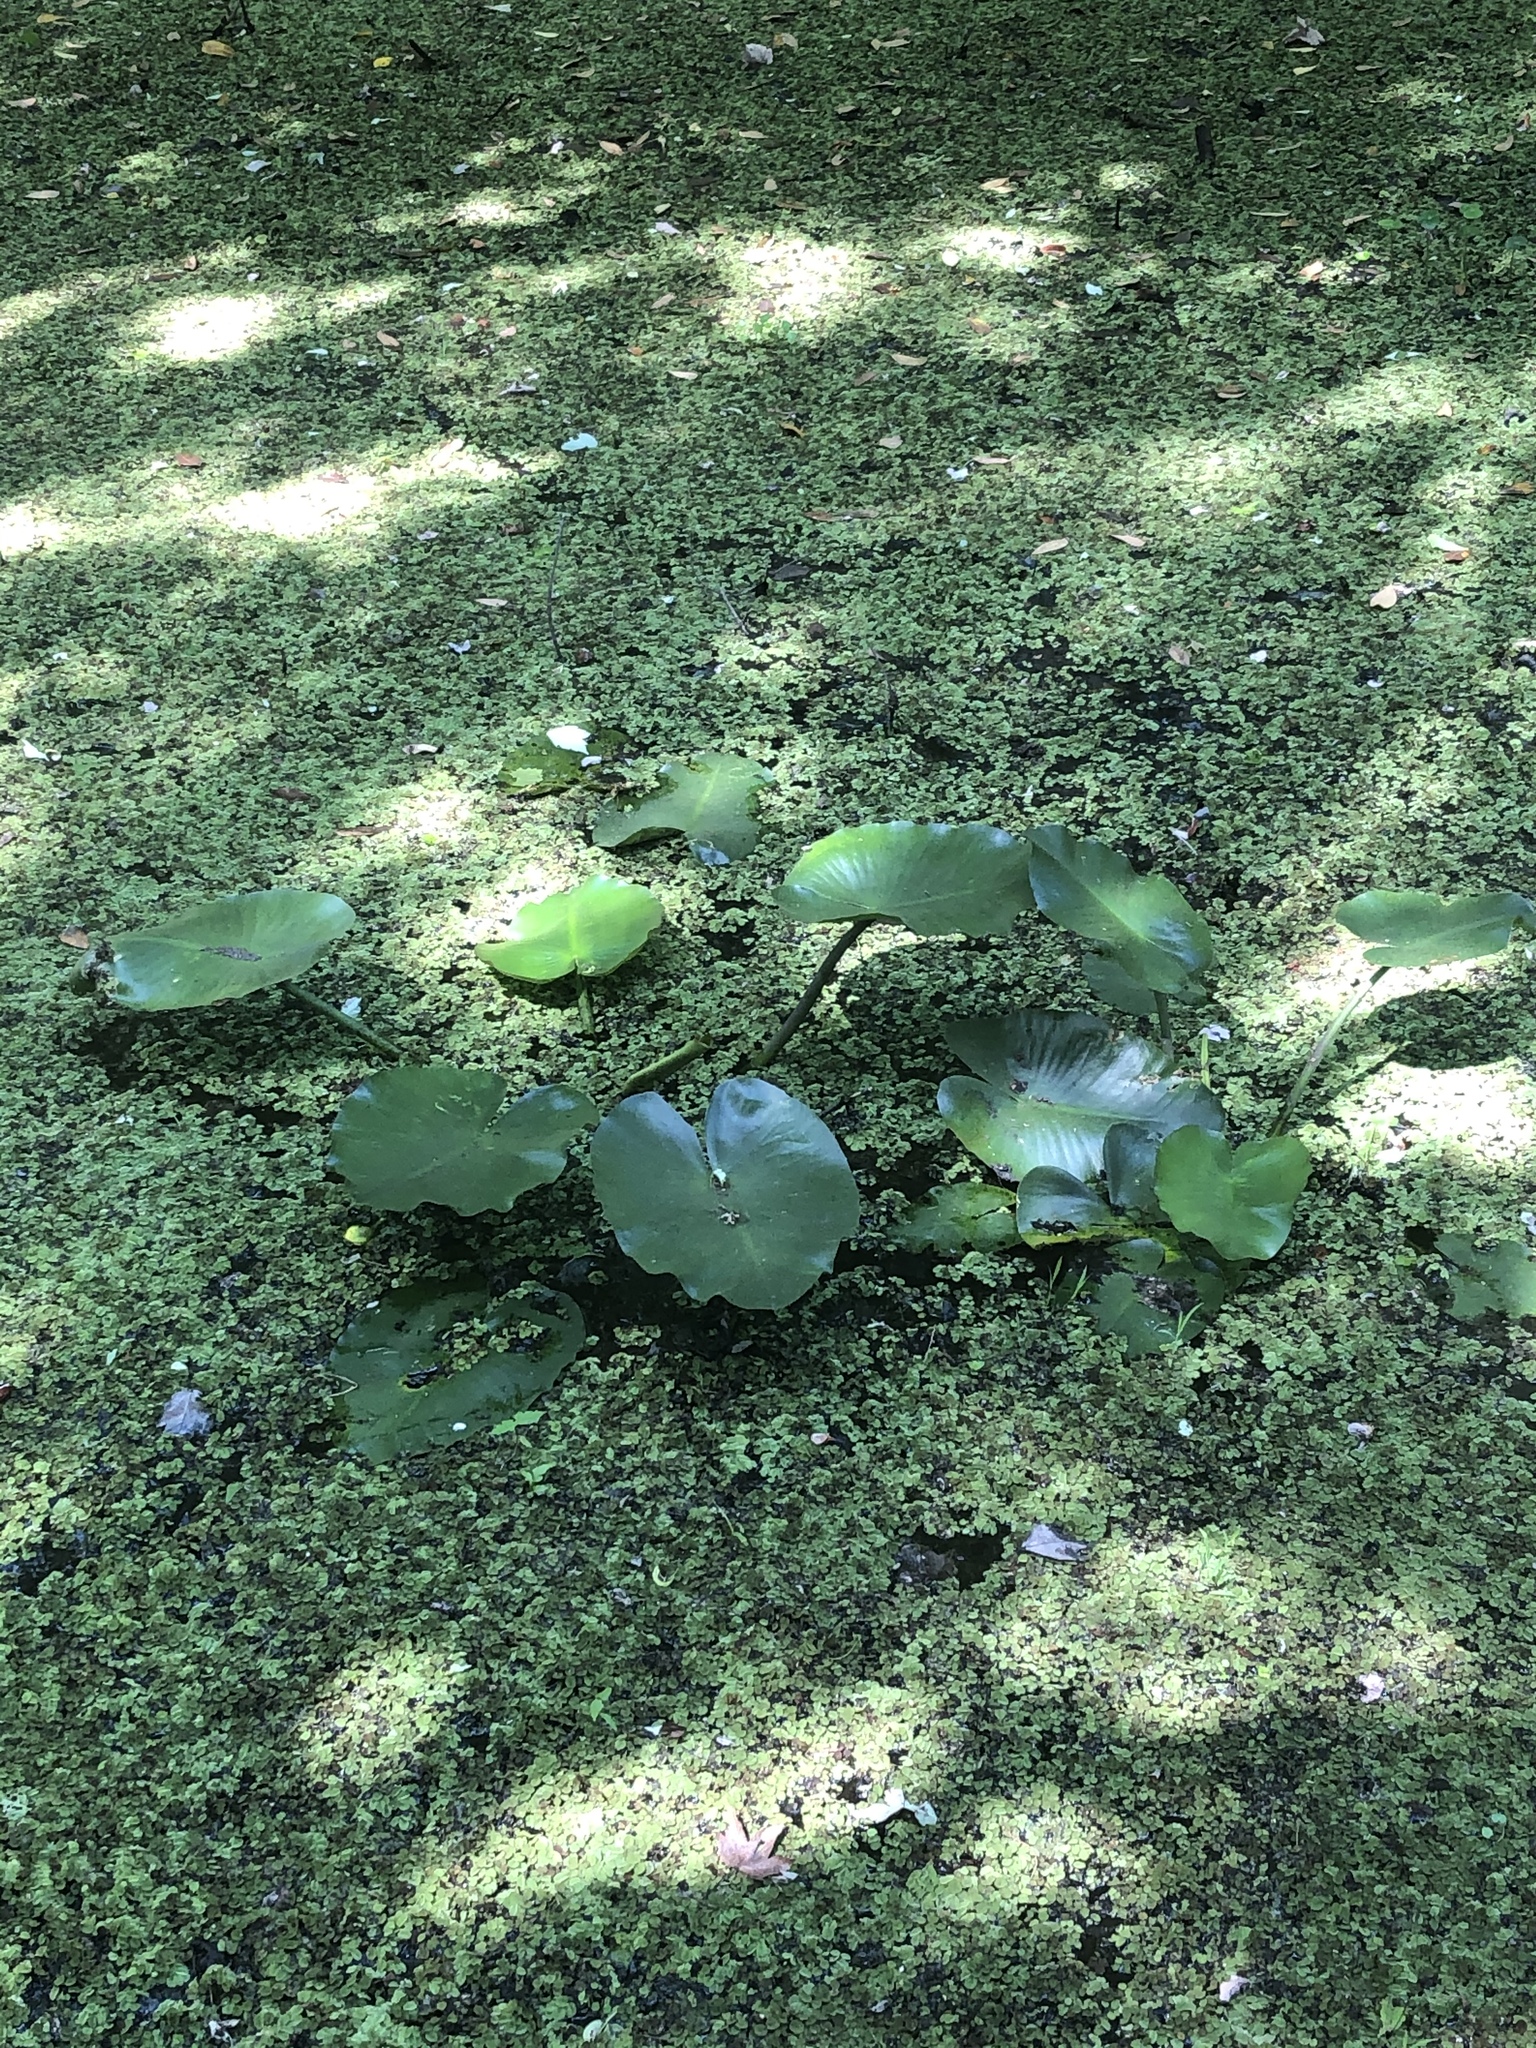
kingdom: Plantae
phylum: Tracheophyta
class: Magnoliopsida
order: Nymphaeales
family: Nymphaeaceae
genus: Nuphar
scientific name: Nuphar advena
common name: Spatter-dock
